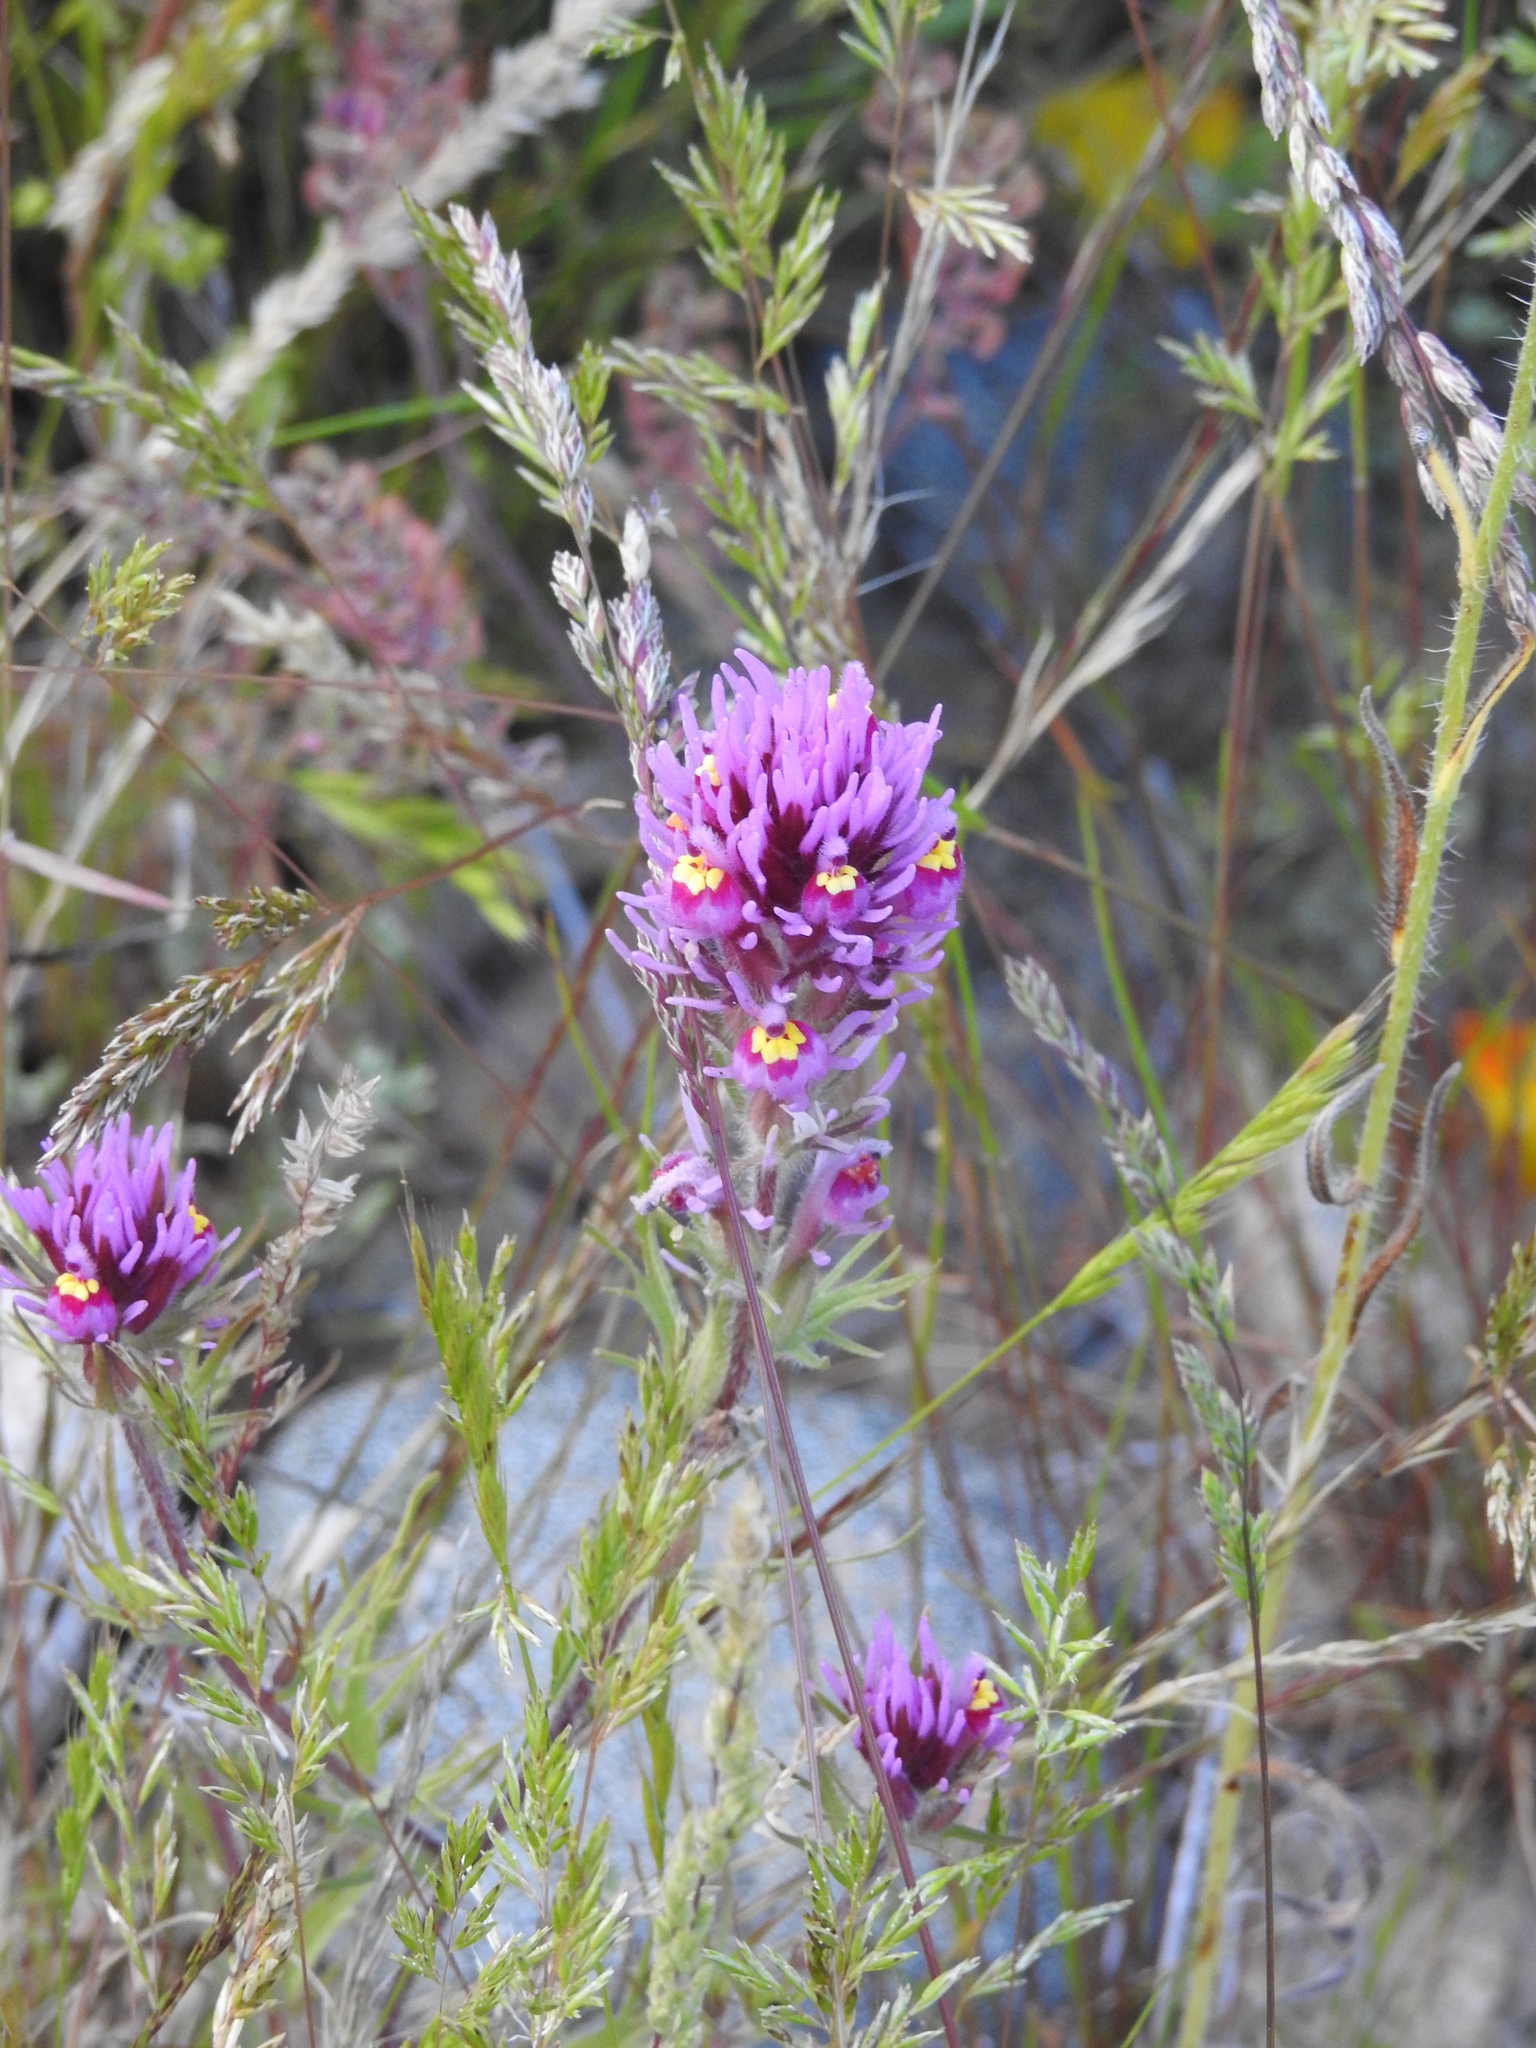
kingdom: Plantae
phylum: Tracheophyta
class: Magnoliopsida
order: Lamiales
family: Orobanchaceae
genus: Castilleja
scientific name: Castilleja exserta
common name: Purple owl-clover
